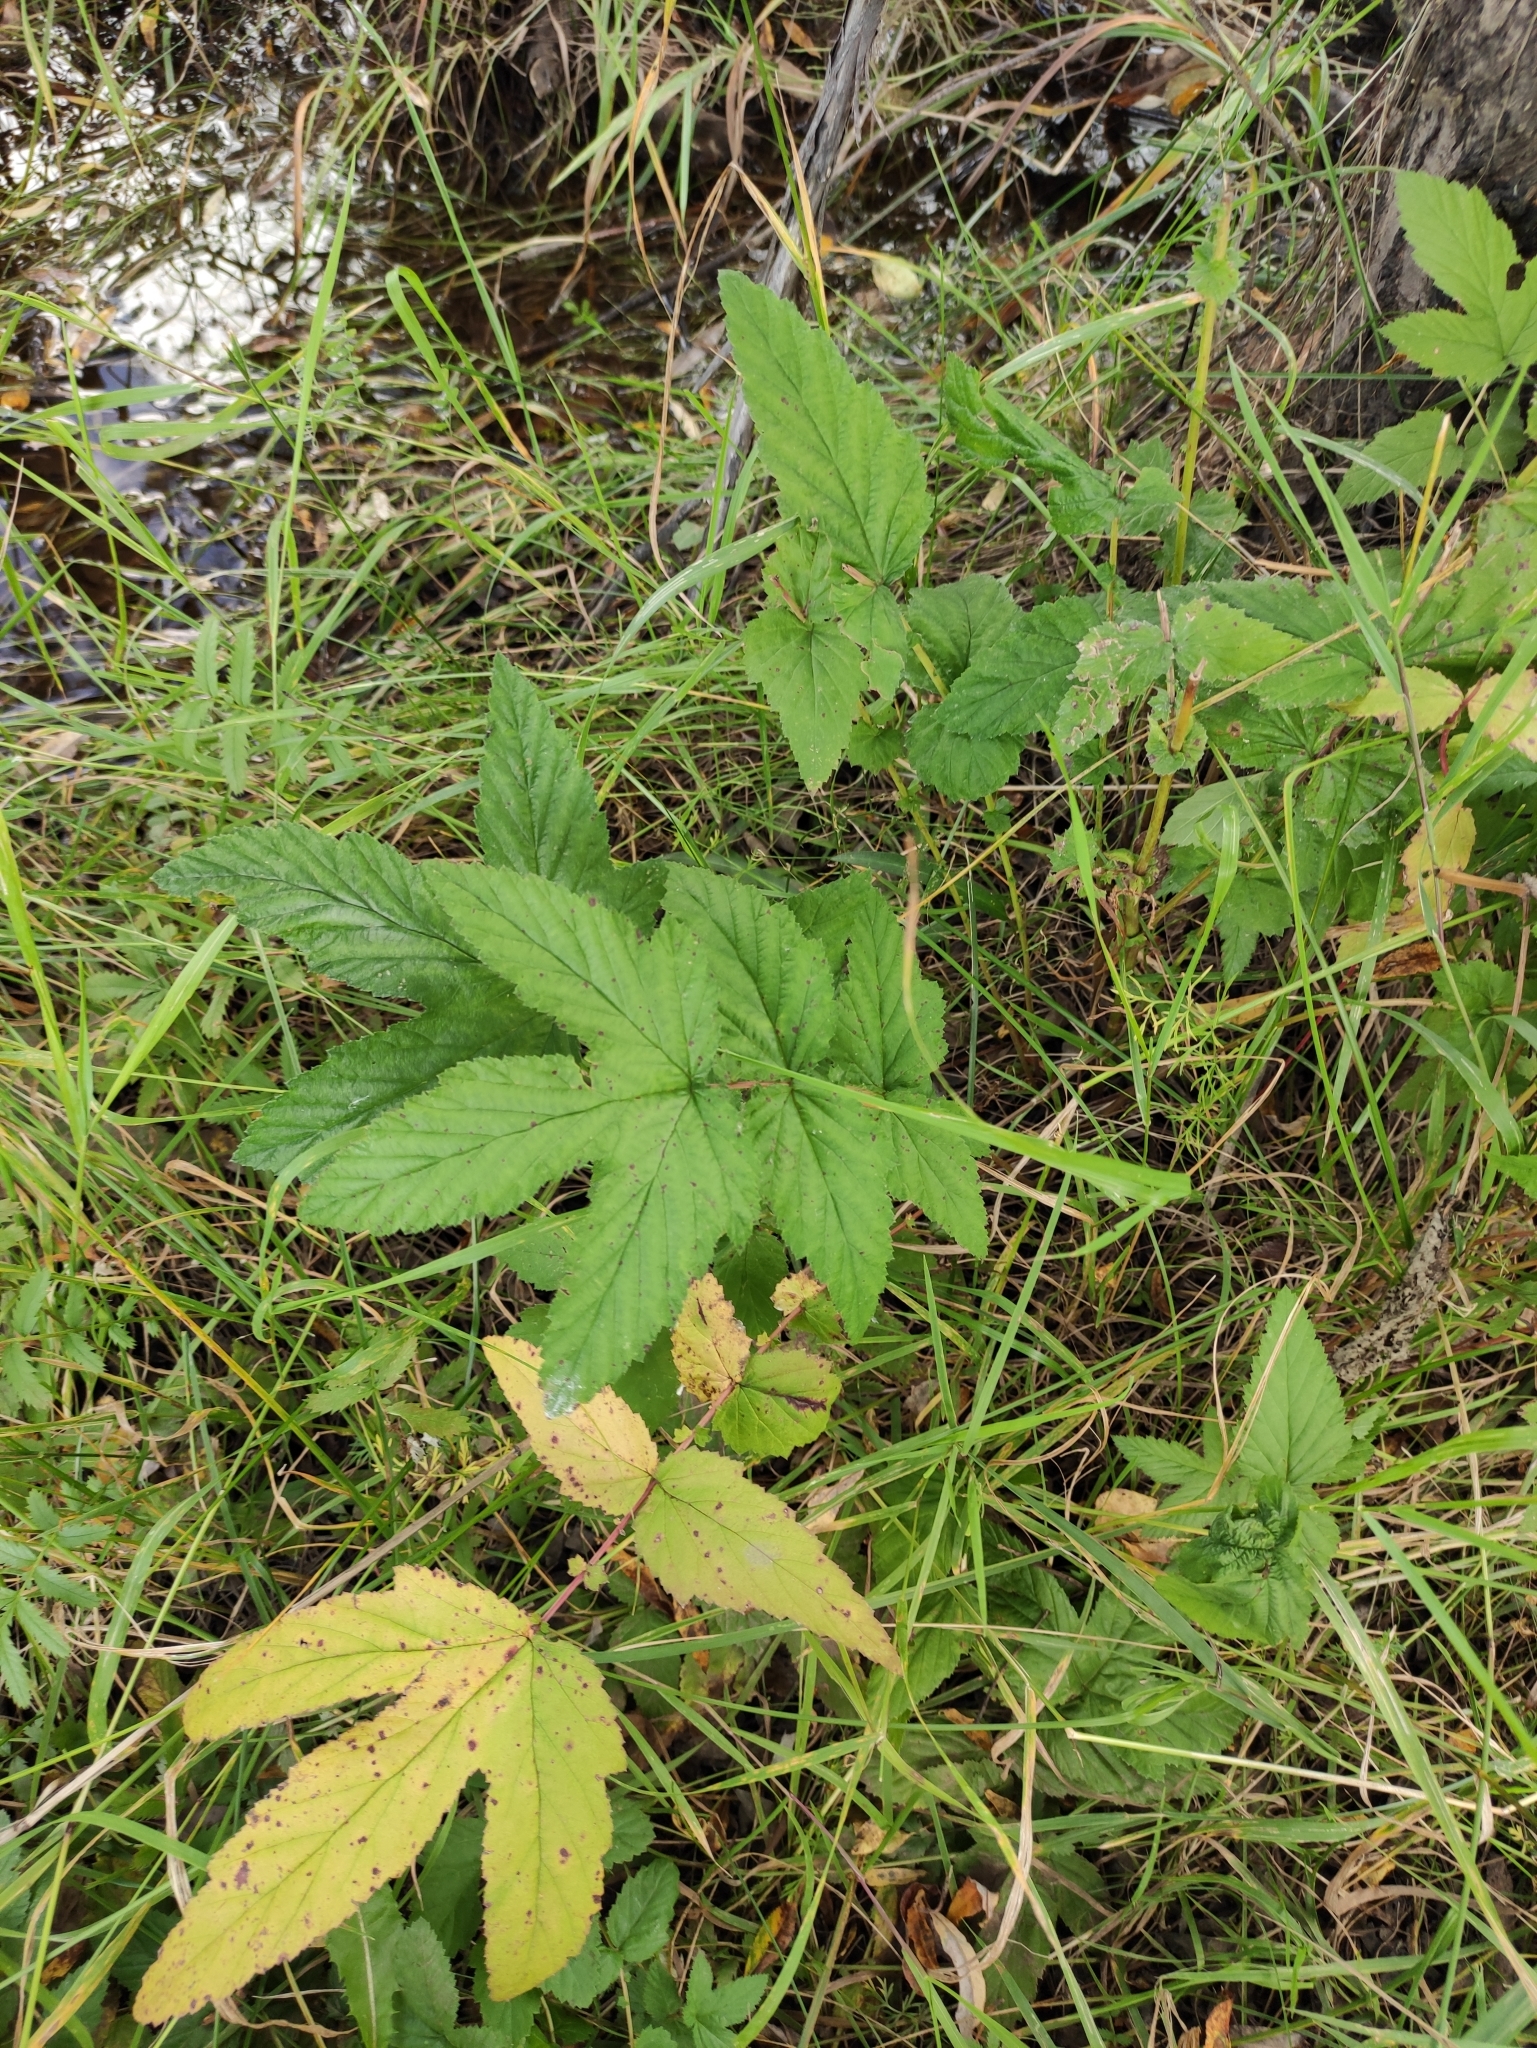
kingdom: Plantae
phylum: Tracheophyta
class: Magnoliopsida
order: Rosales
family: Rosaceae
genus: Filipendula
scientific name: Filipendula ulmaria
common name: Meadowsweet
